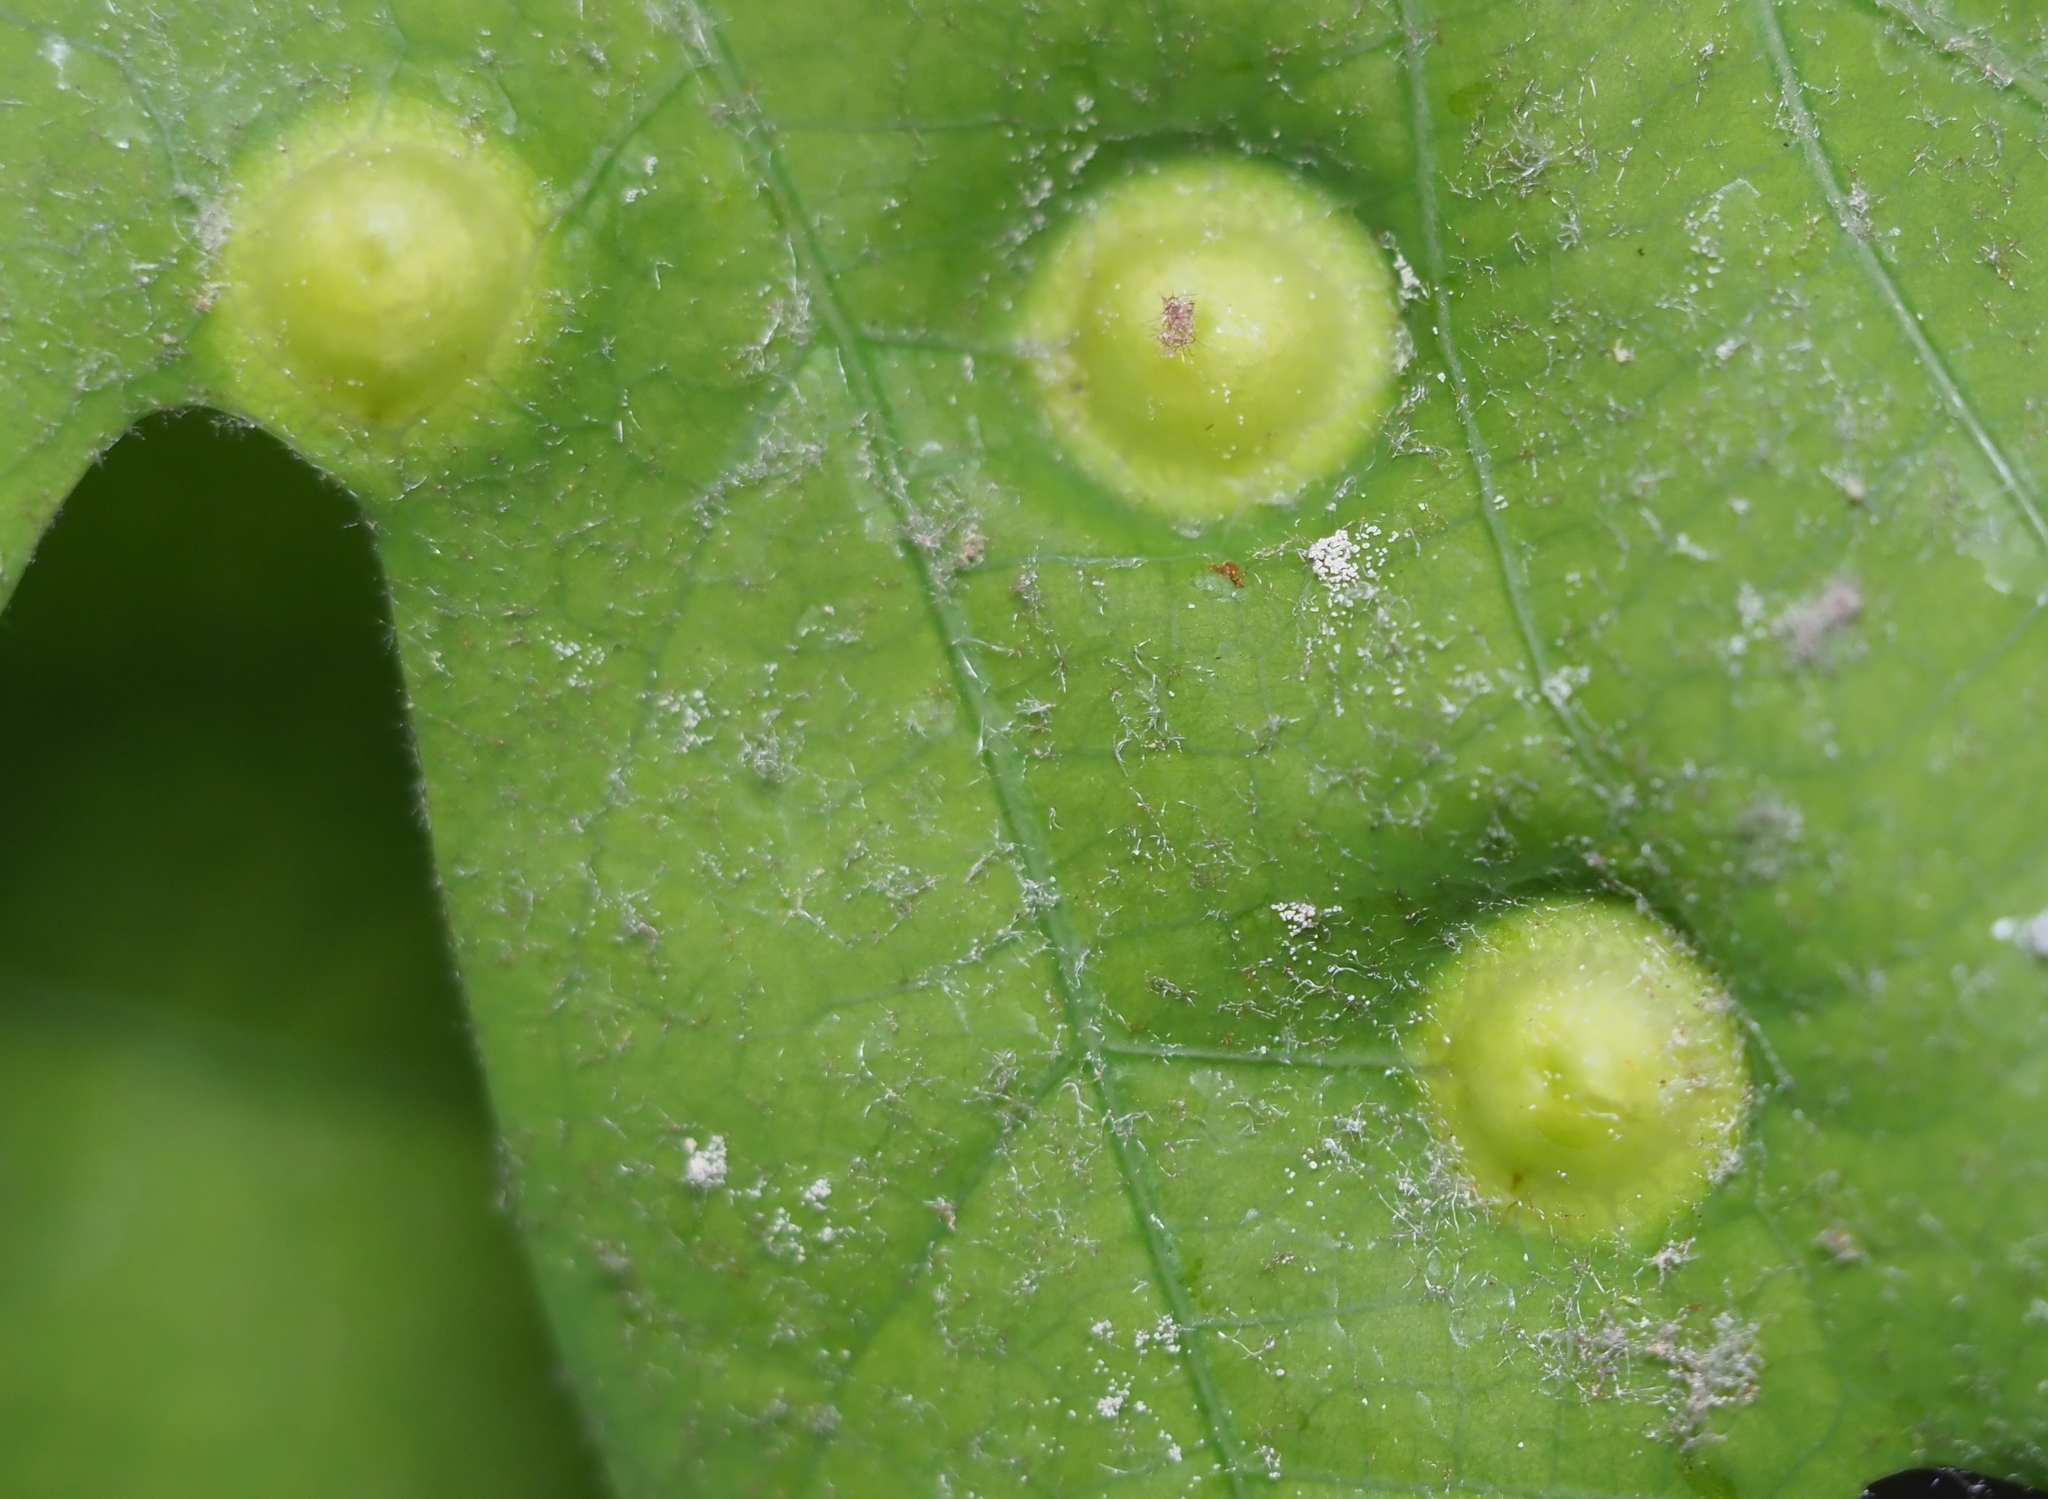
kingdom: Animalia
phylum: Arthropoda
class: Insecta
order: Hymenoptera
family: Cynipidae
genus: Callirhytis
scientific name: Callirhytis
